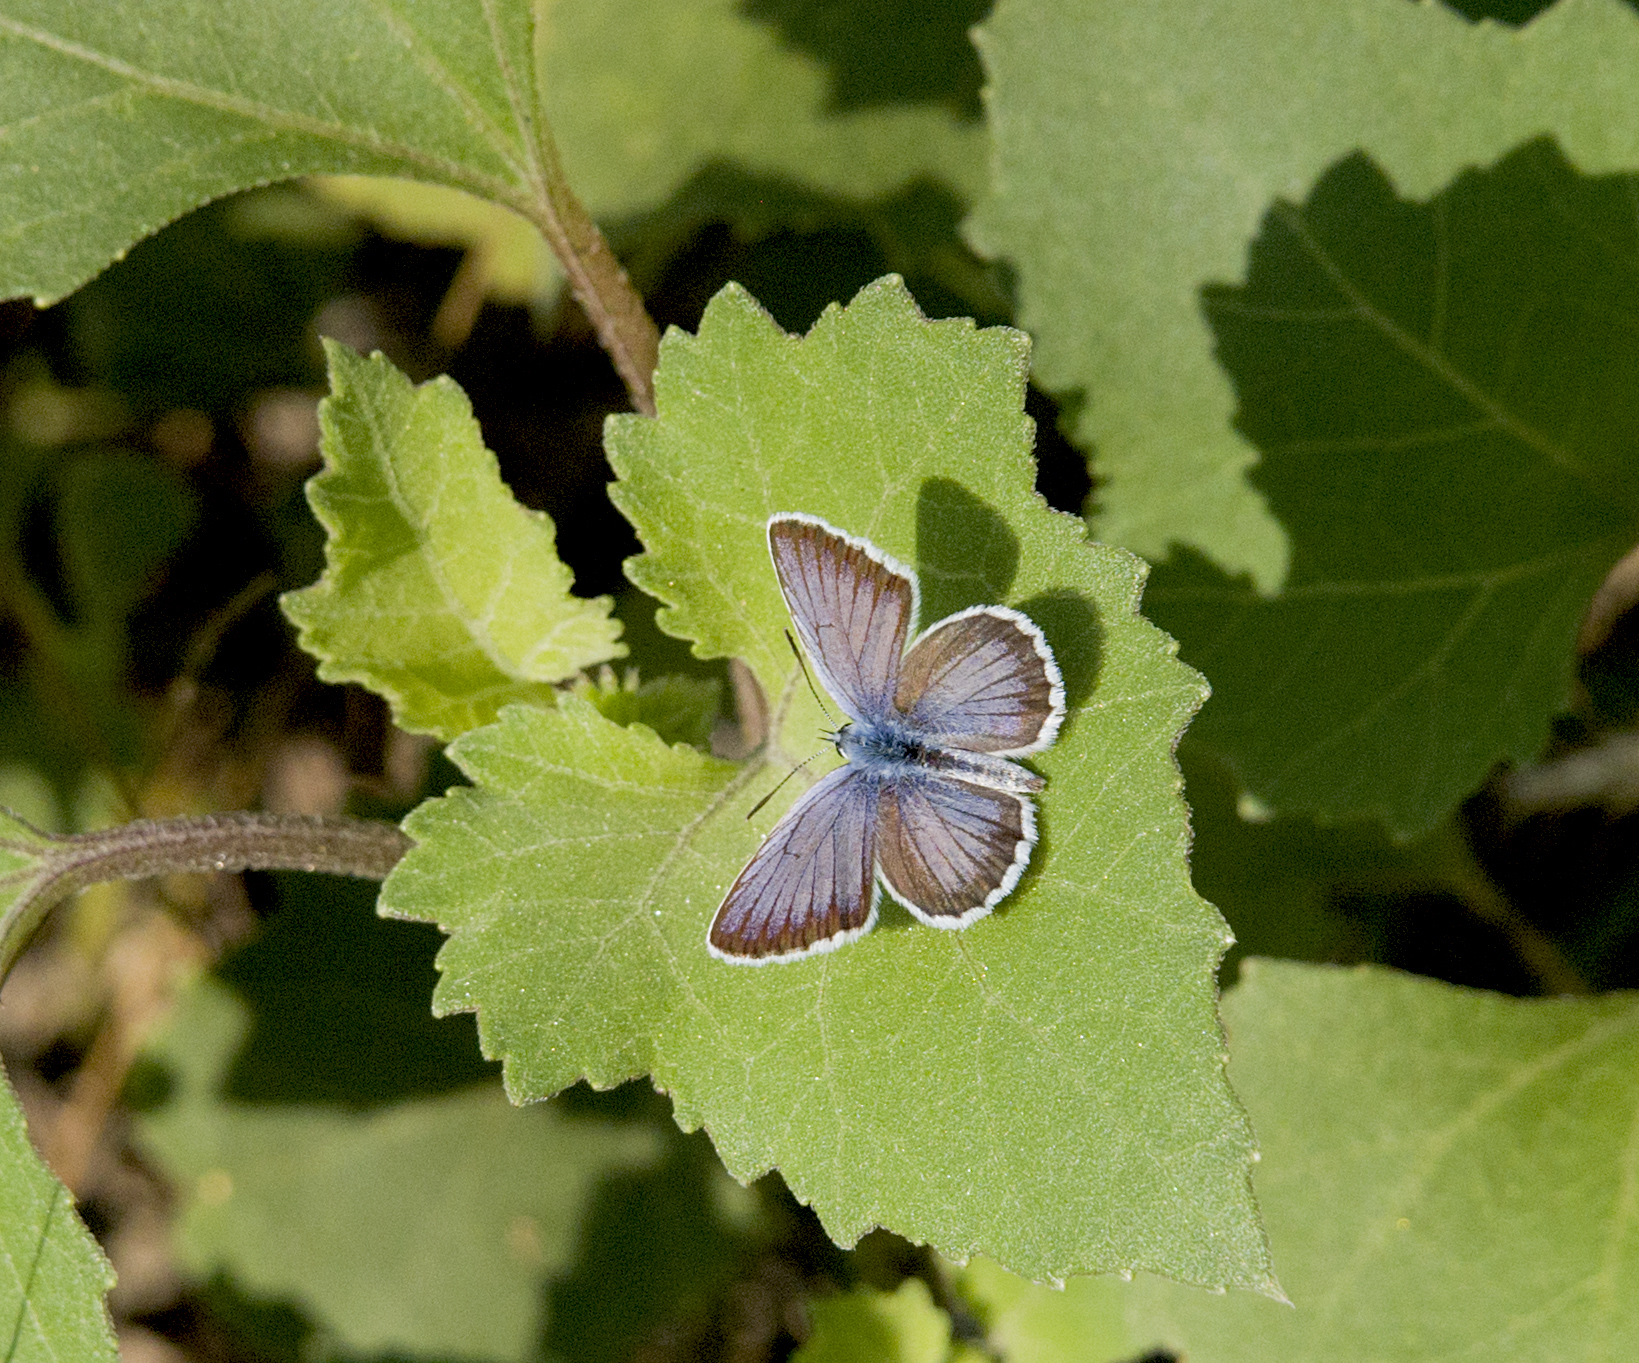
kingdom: Animalia
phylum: Arthropoda
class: Insecta
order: Lepidoptera
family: Lycaenidae
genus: Plebejus
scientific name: Plebejus argus
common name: Silver-studded blue
